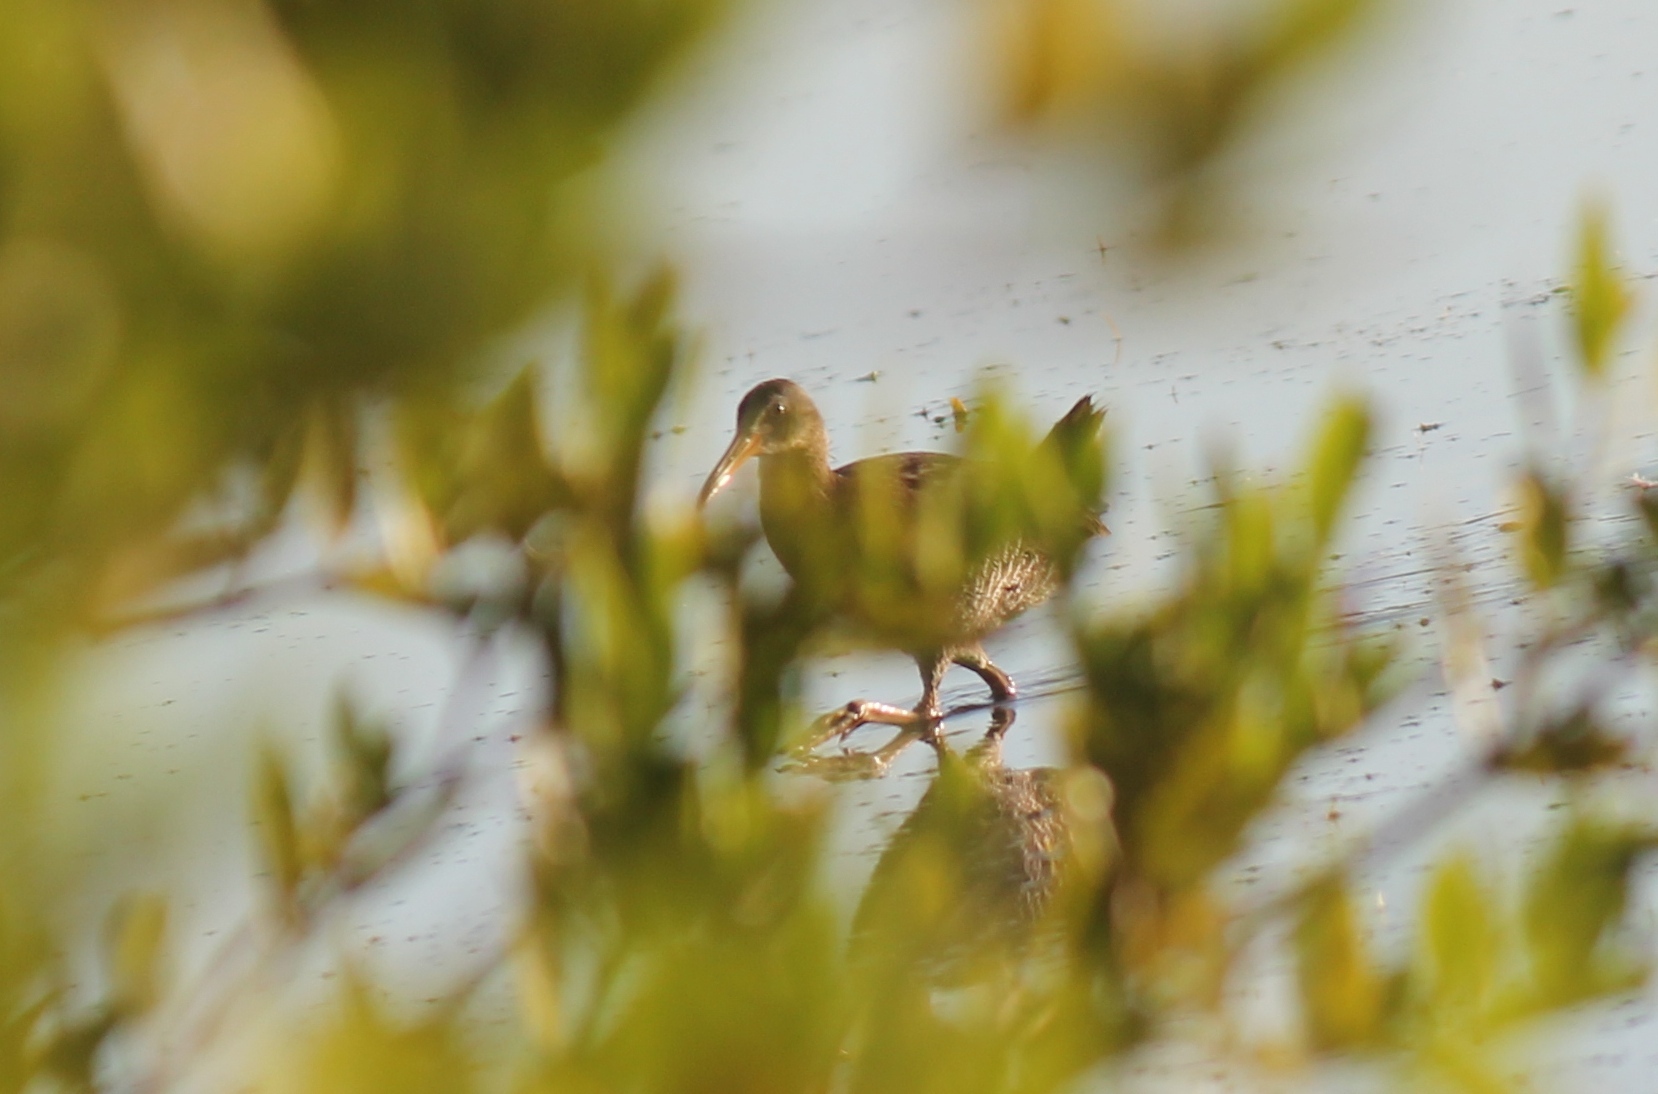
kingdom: Animalia
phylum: Chordata
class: Aves
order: Gruiformes
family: Rallidae
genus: Rallus
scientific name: Rallus crepitans
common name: Clapper rail
